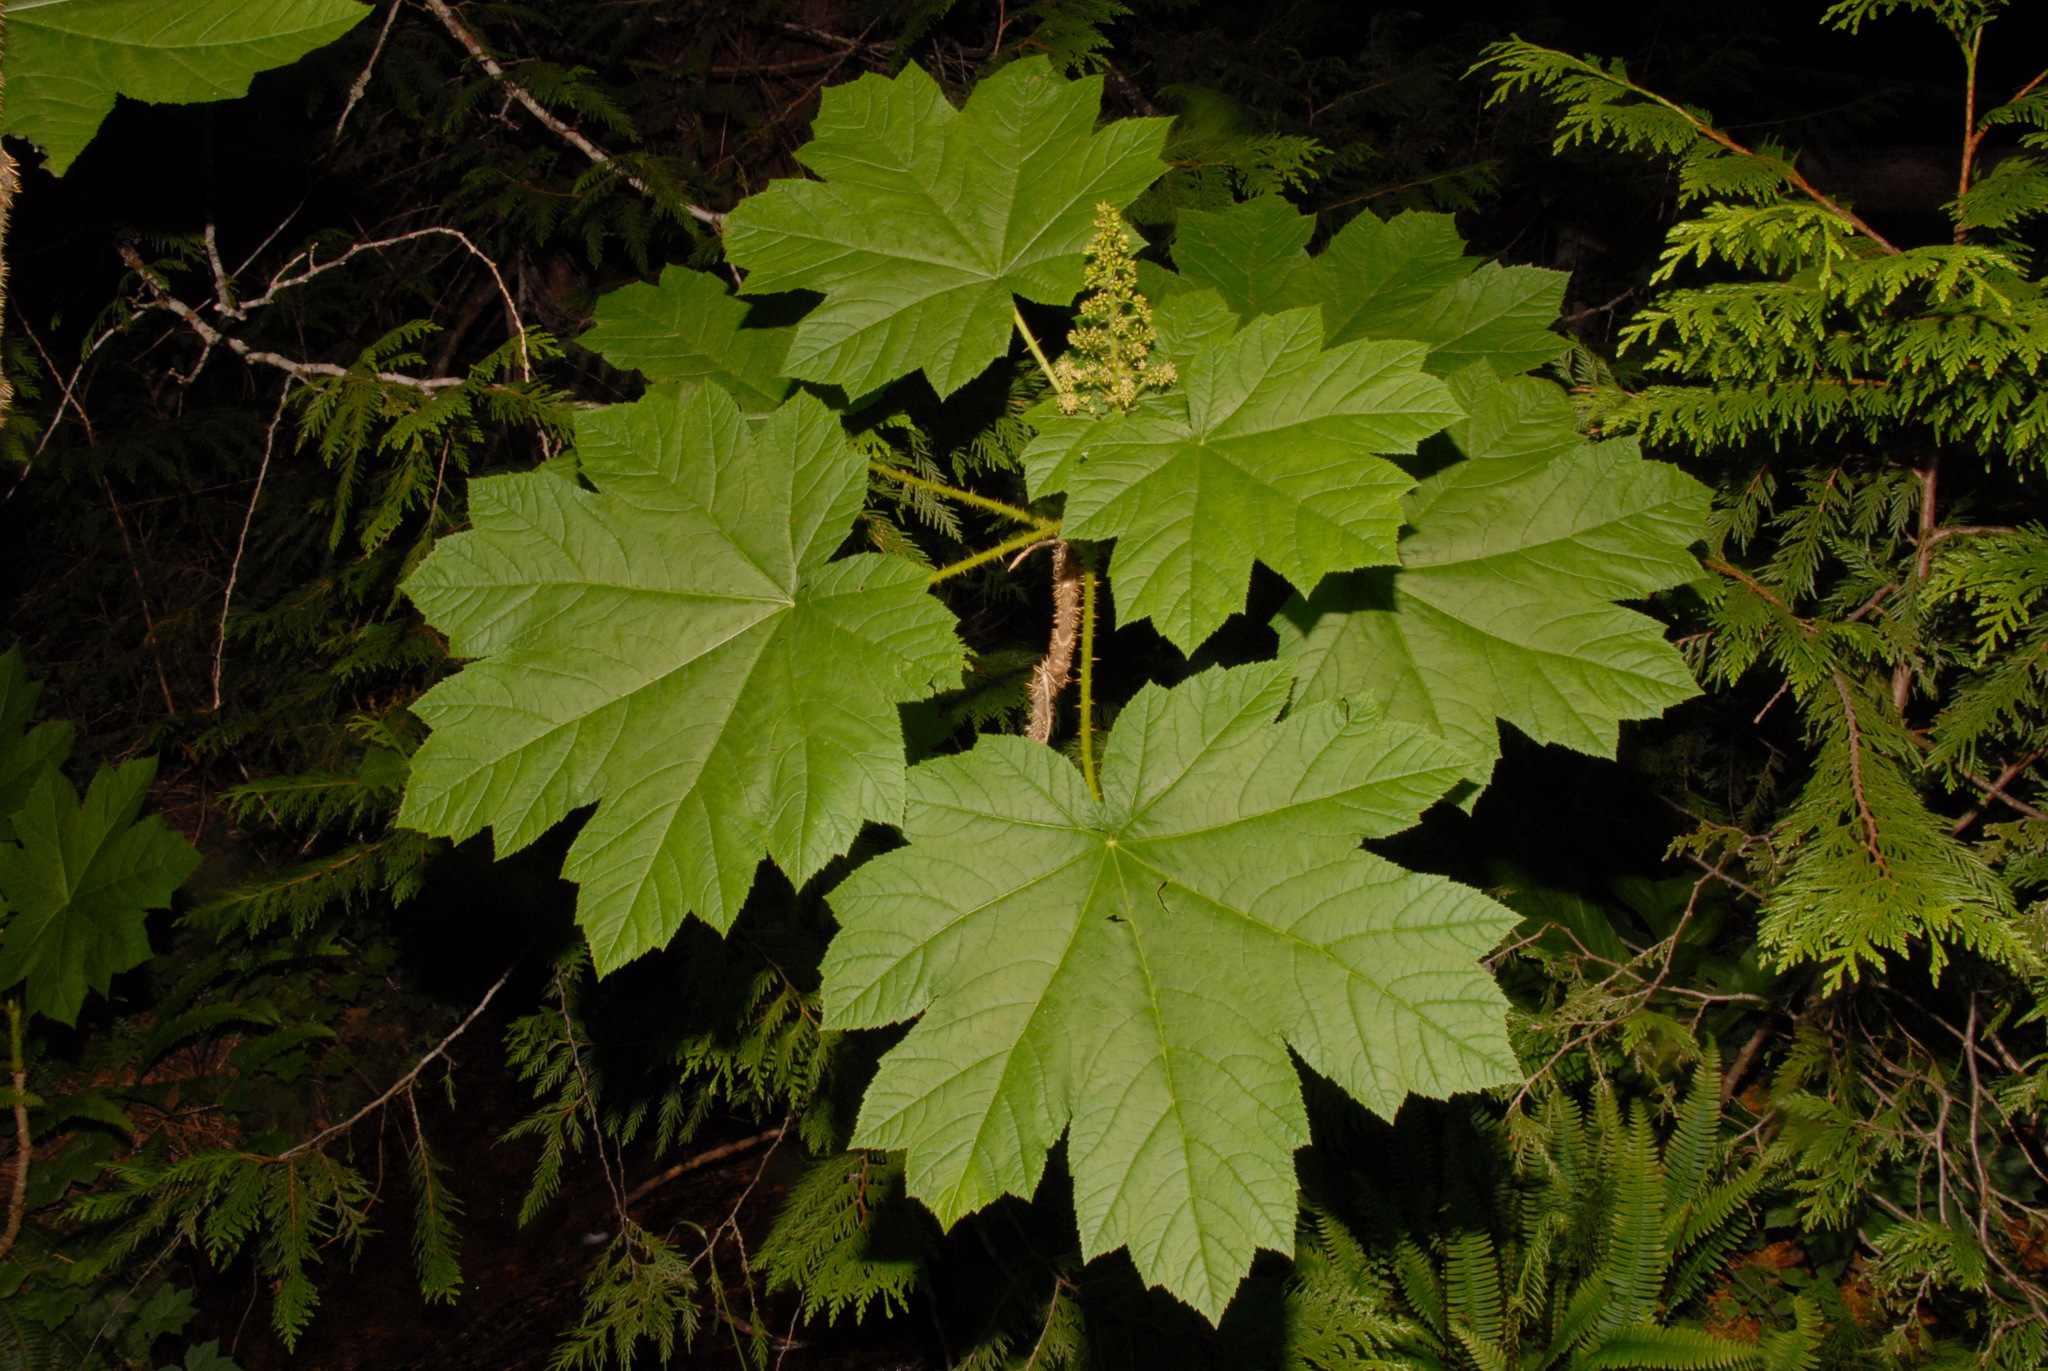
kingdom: Plantae
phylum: Tracheophyta
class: Magnoliopsida
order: Apiales
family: Araliaceae
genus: Oplopanax
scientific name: Oplopanax horridus
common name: Devil's walking-stick
